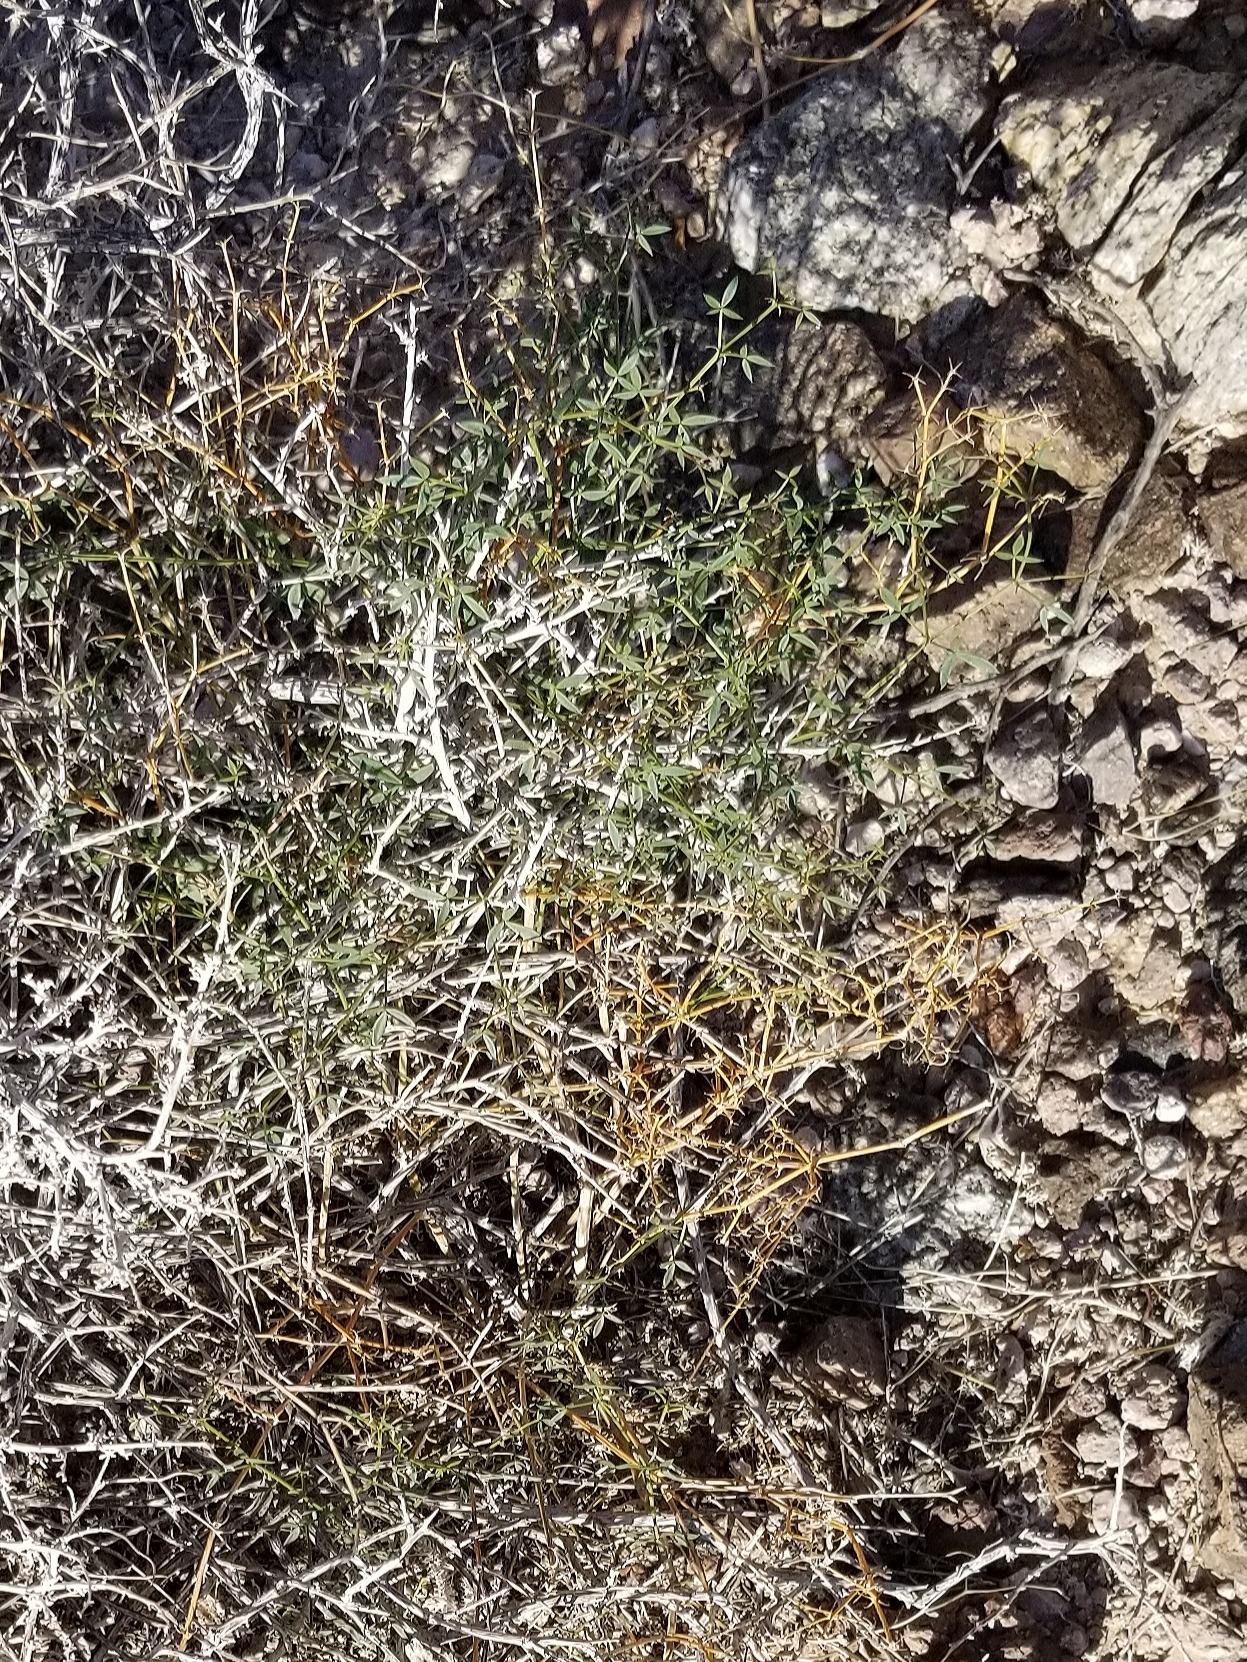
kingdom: Plantae
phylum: Tracheophyta
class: Magnoliopsida
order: Zygophyllales
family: Zygophyllaceae
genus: Fagonia
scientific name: Fagonia laevis
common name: California fagonbush
